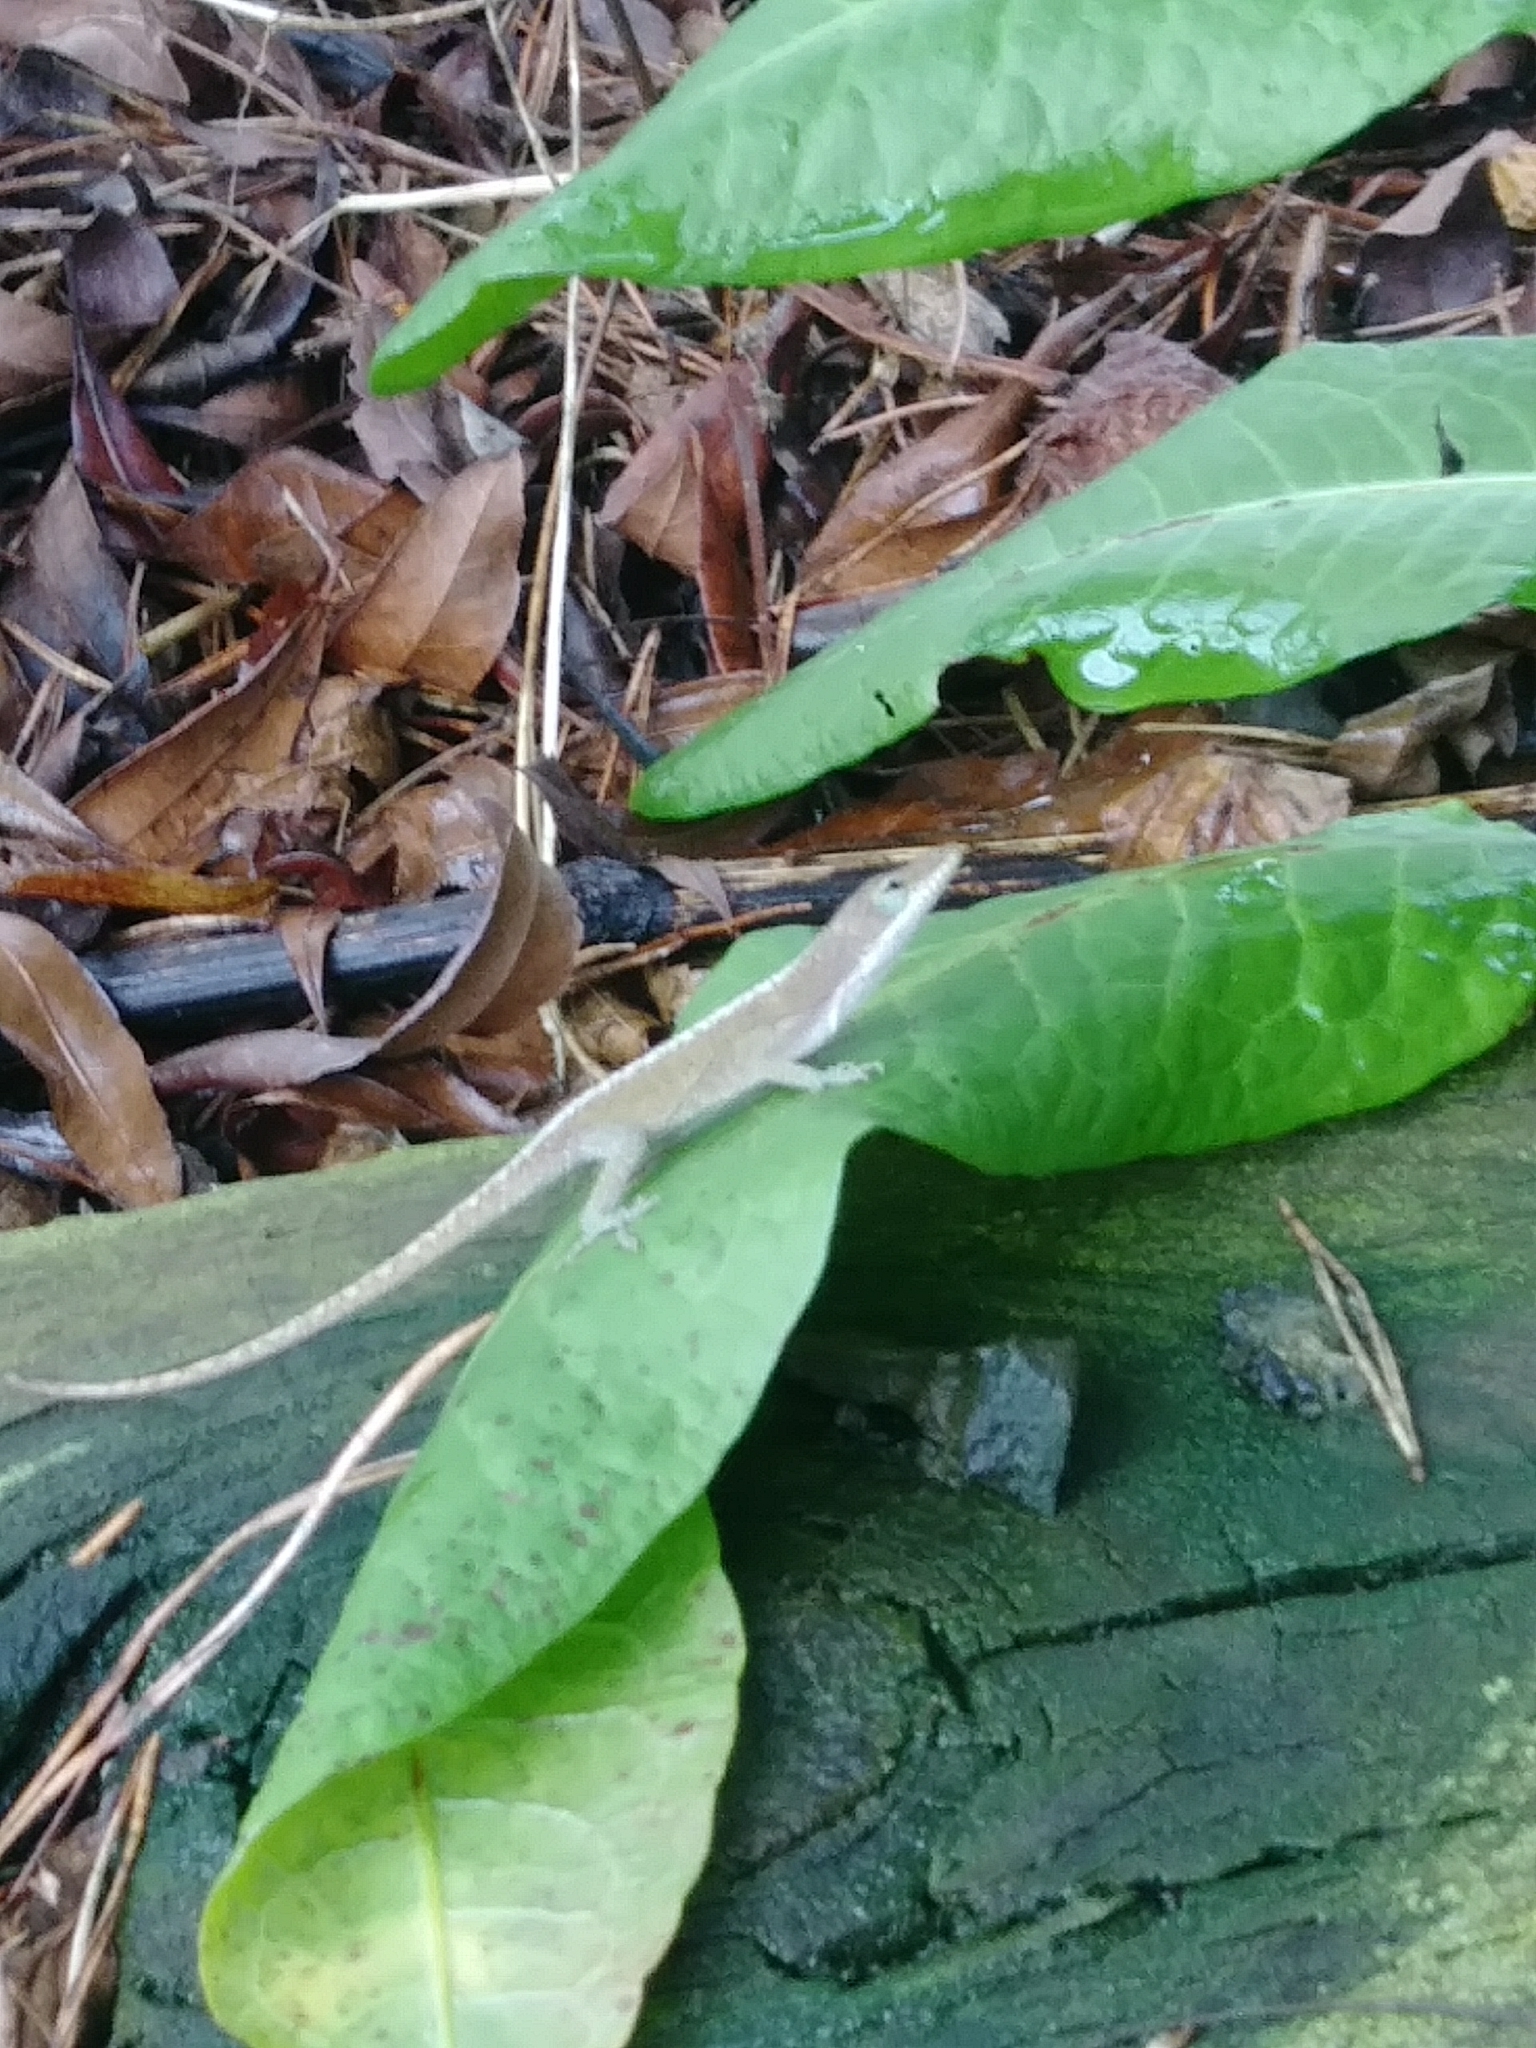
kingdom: Animalia
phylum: Chordata
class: Squamata
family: Dactyloidae
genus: Anolis
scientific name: Anolis carolinensis
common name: Green anole
